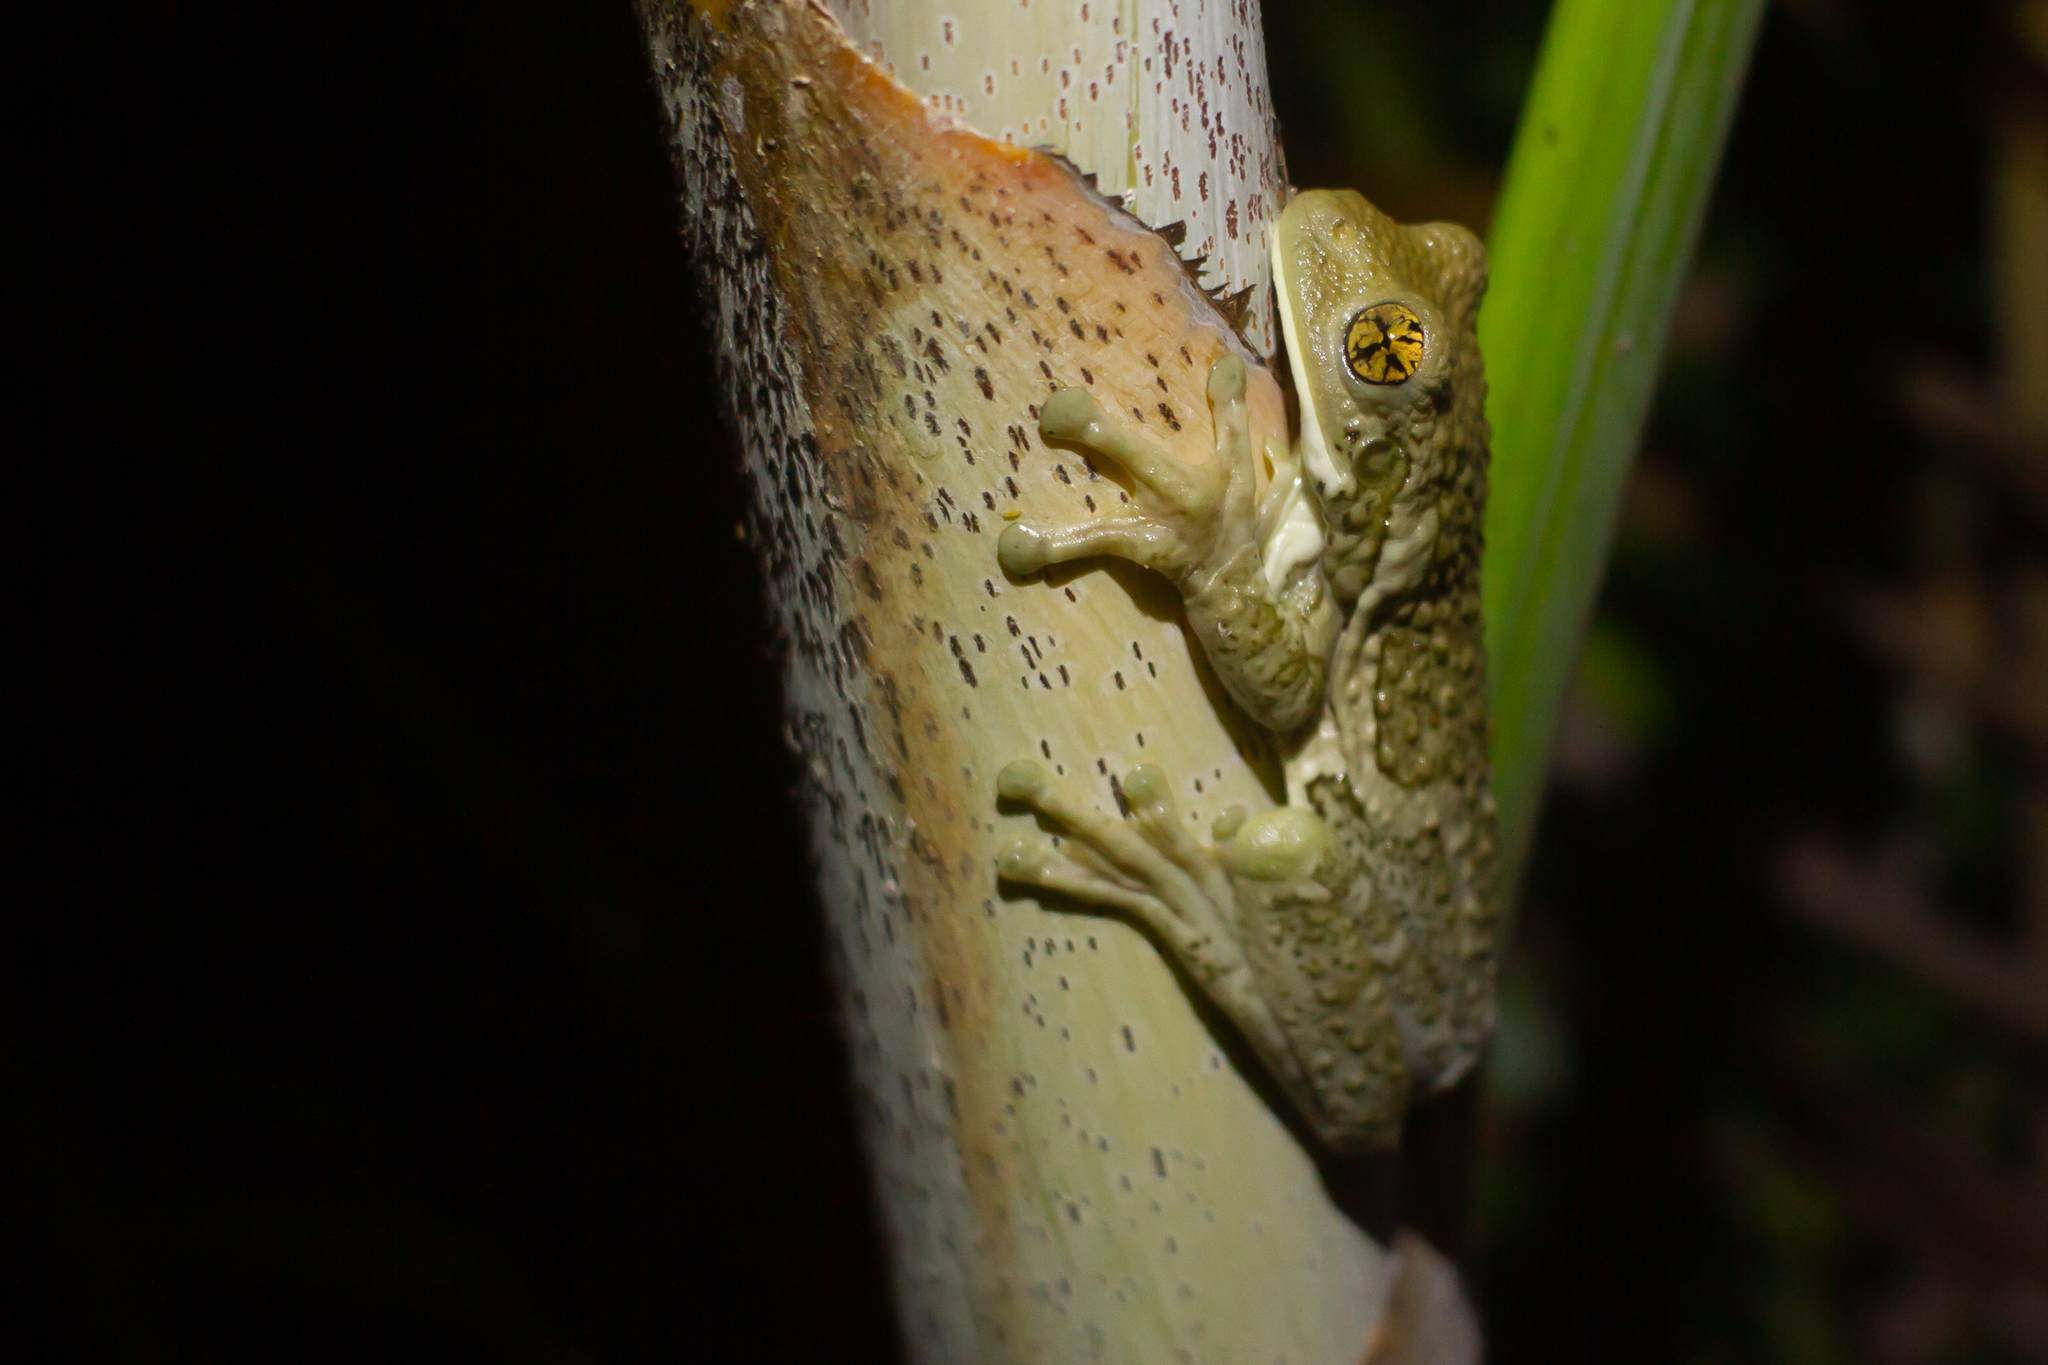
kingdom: Animalia
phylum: Chordata
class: Amphibia
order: Anura
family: Hylidae
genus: Trachycephalus
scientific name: Trachycephalus vermiculatus
